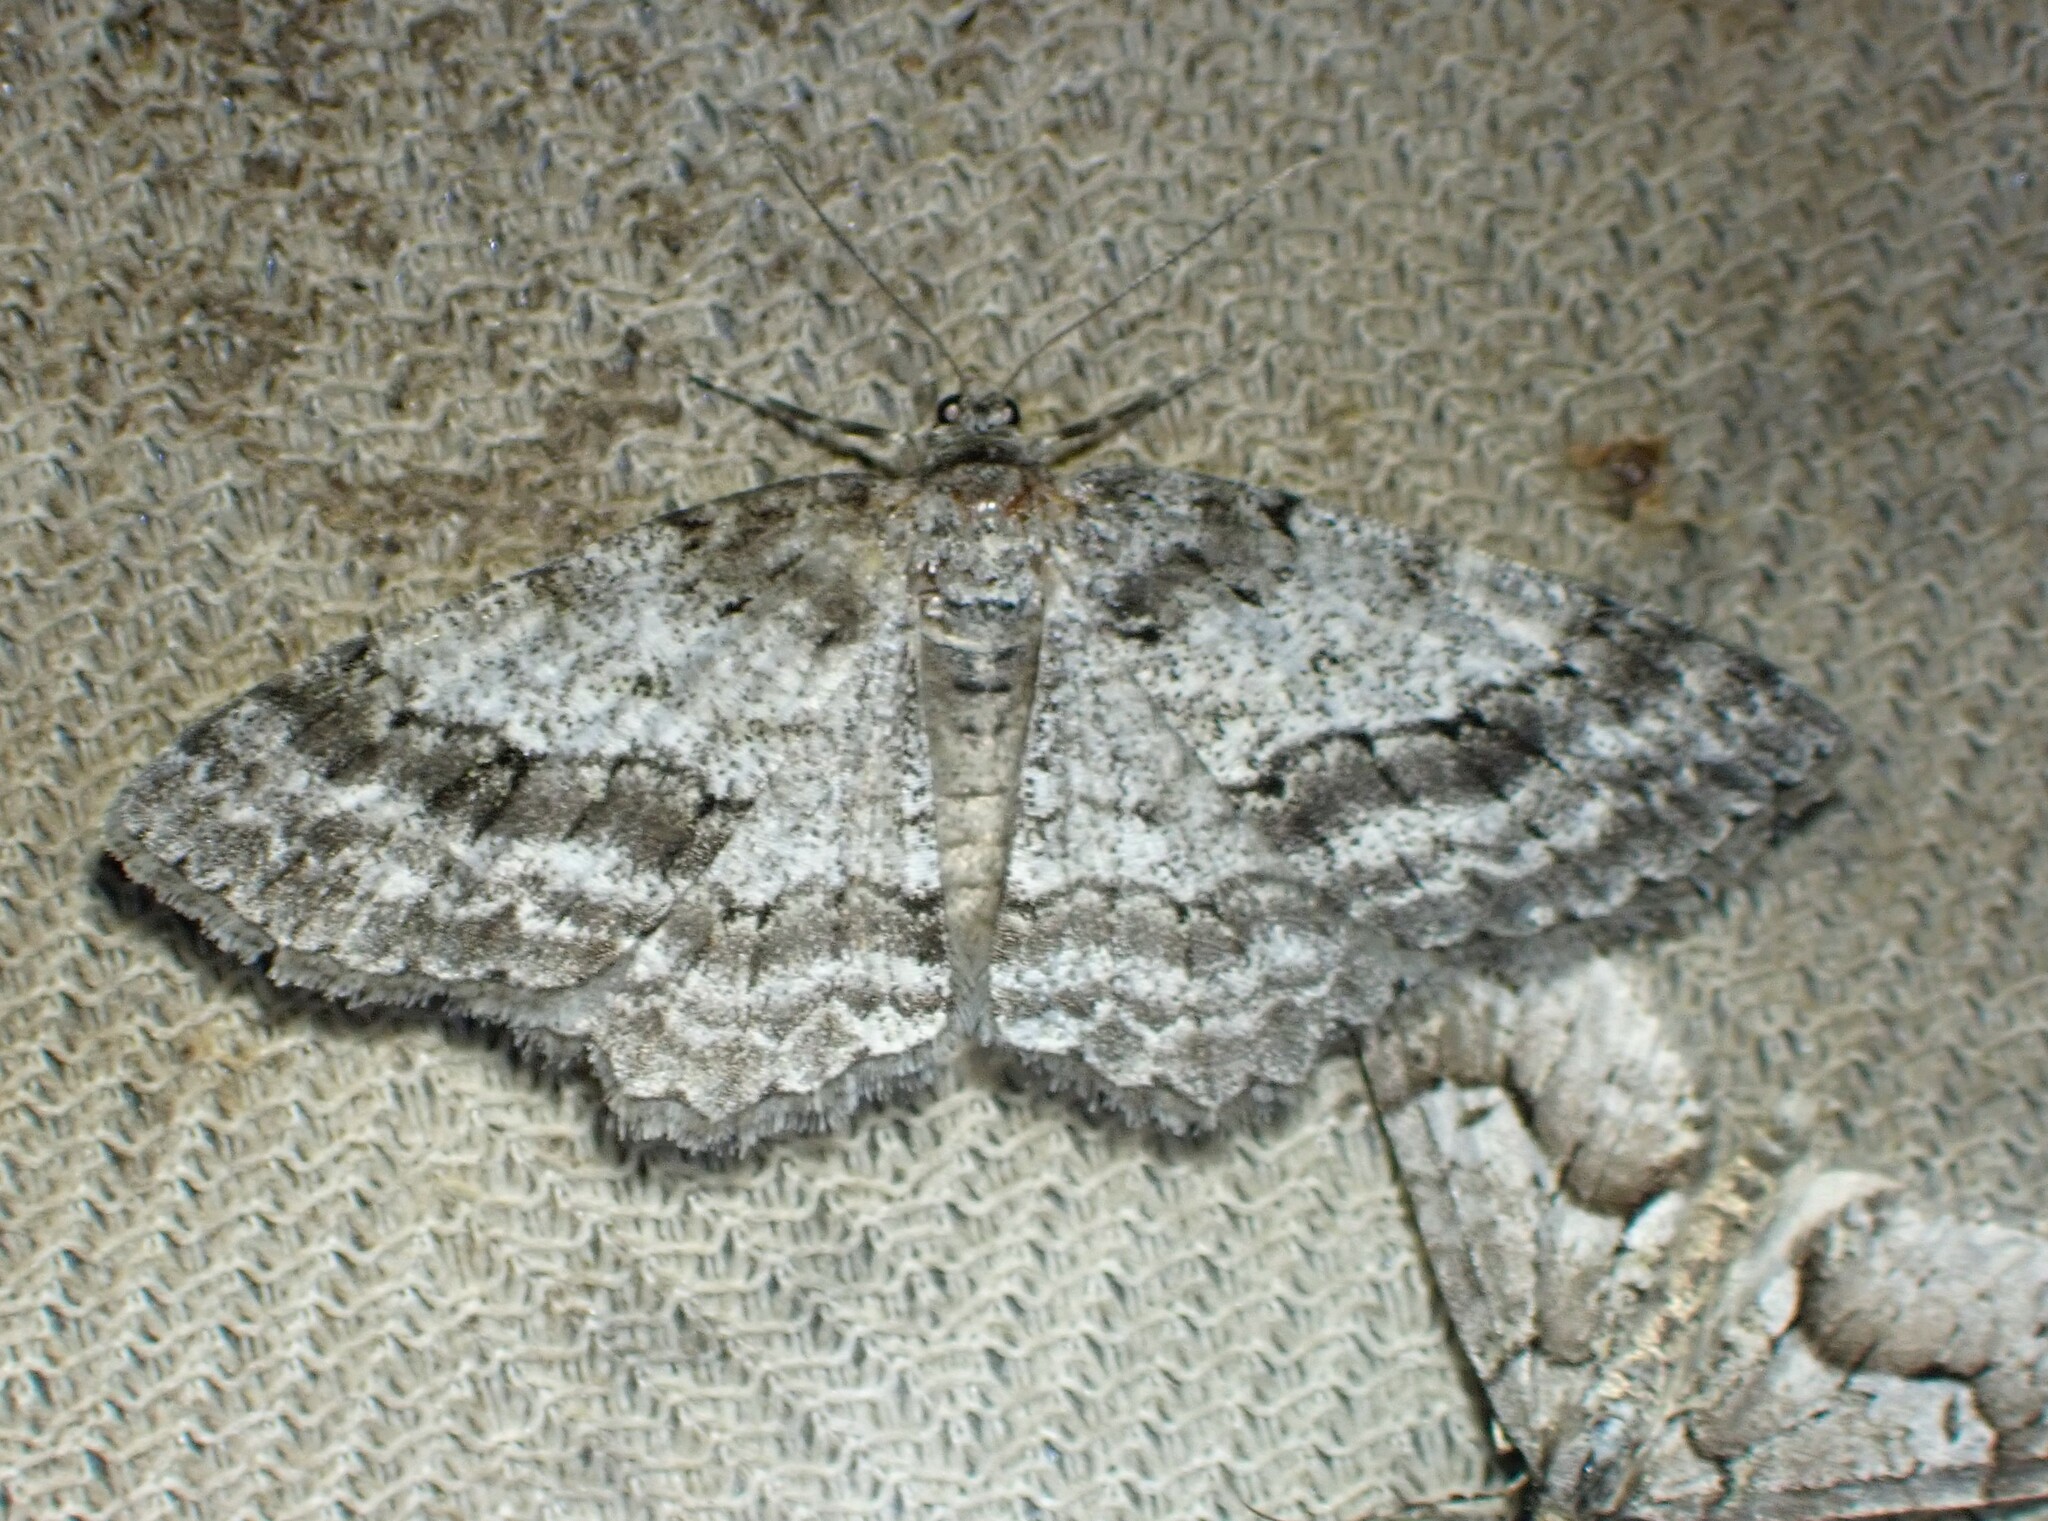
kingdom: Animalia
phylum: Arthropoda
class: Insecta
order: Lepidoptera
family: Geometridae
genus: Ectropis
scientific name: Ectropis crepuscularia
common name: Engrailed
